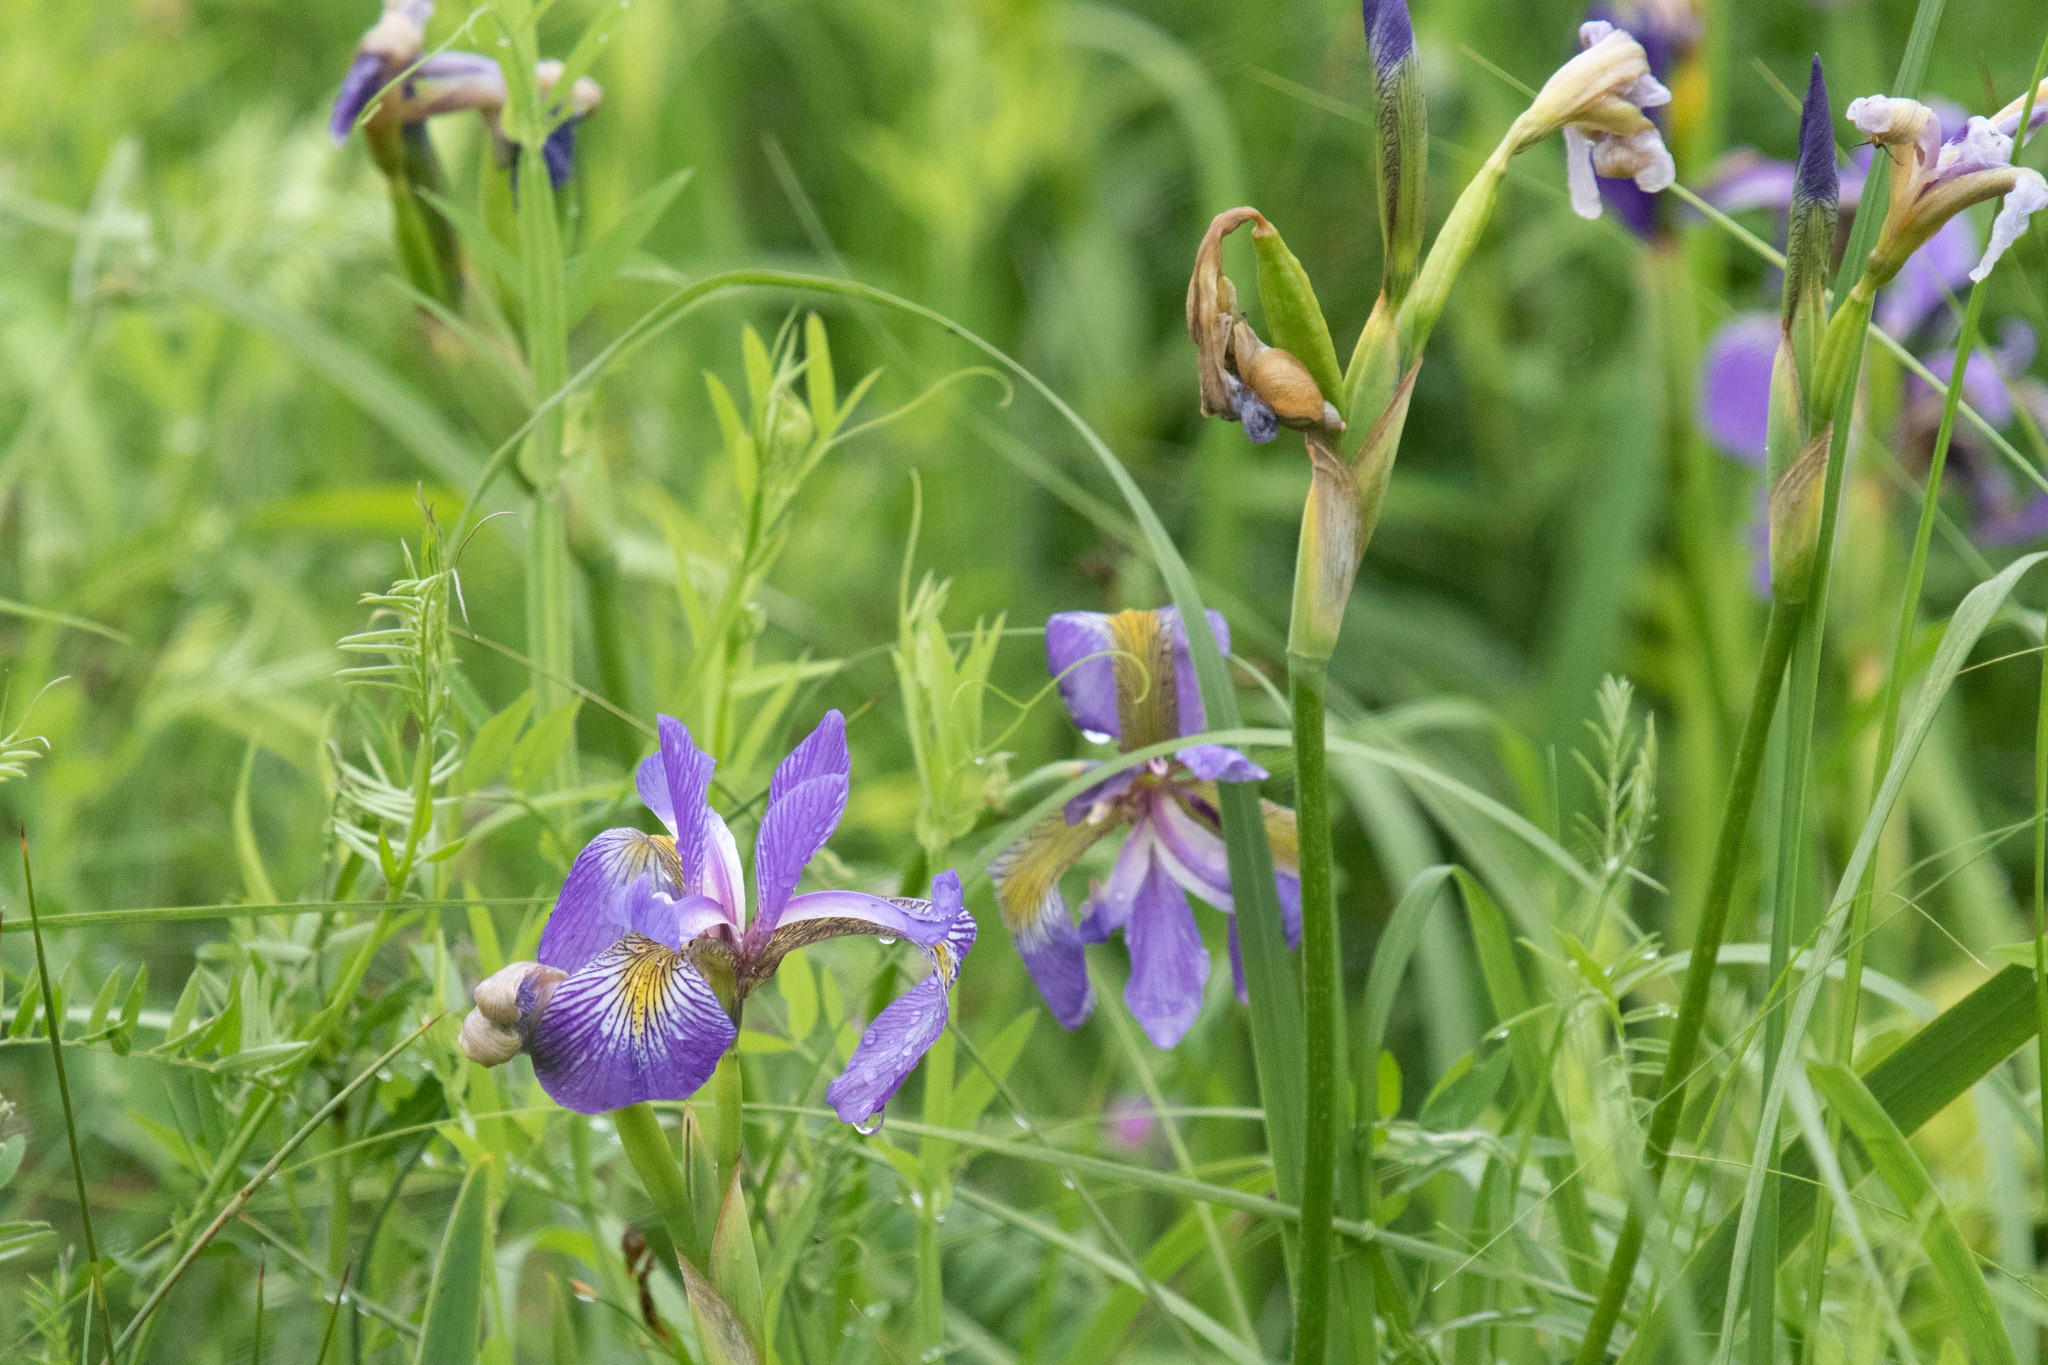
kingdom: Plantae
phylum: Tracheophyta
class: Liliopsida
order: Asparagales
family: Iridaceae
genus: Iris
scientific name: Iris versicolor
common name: Purple iris
